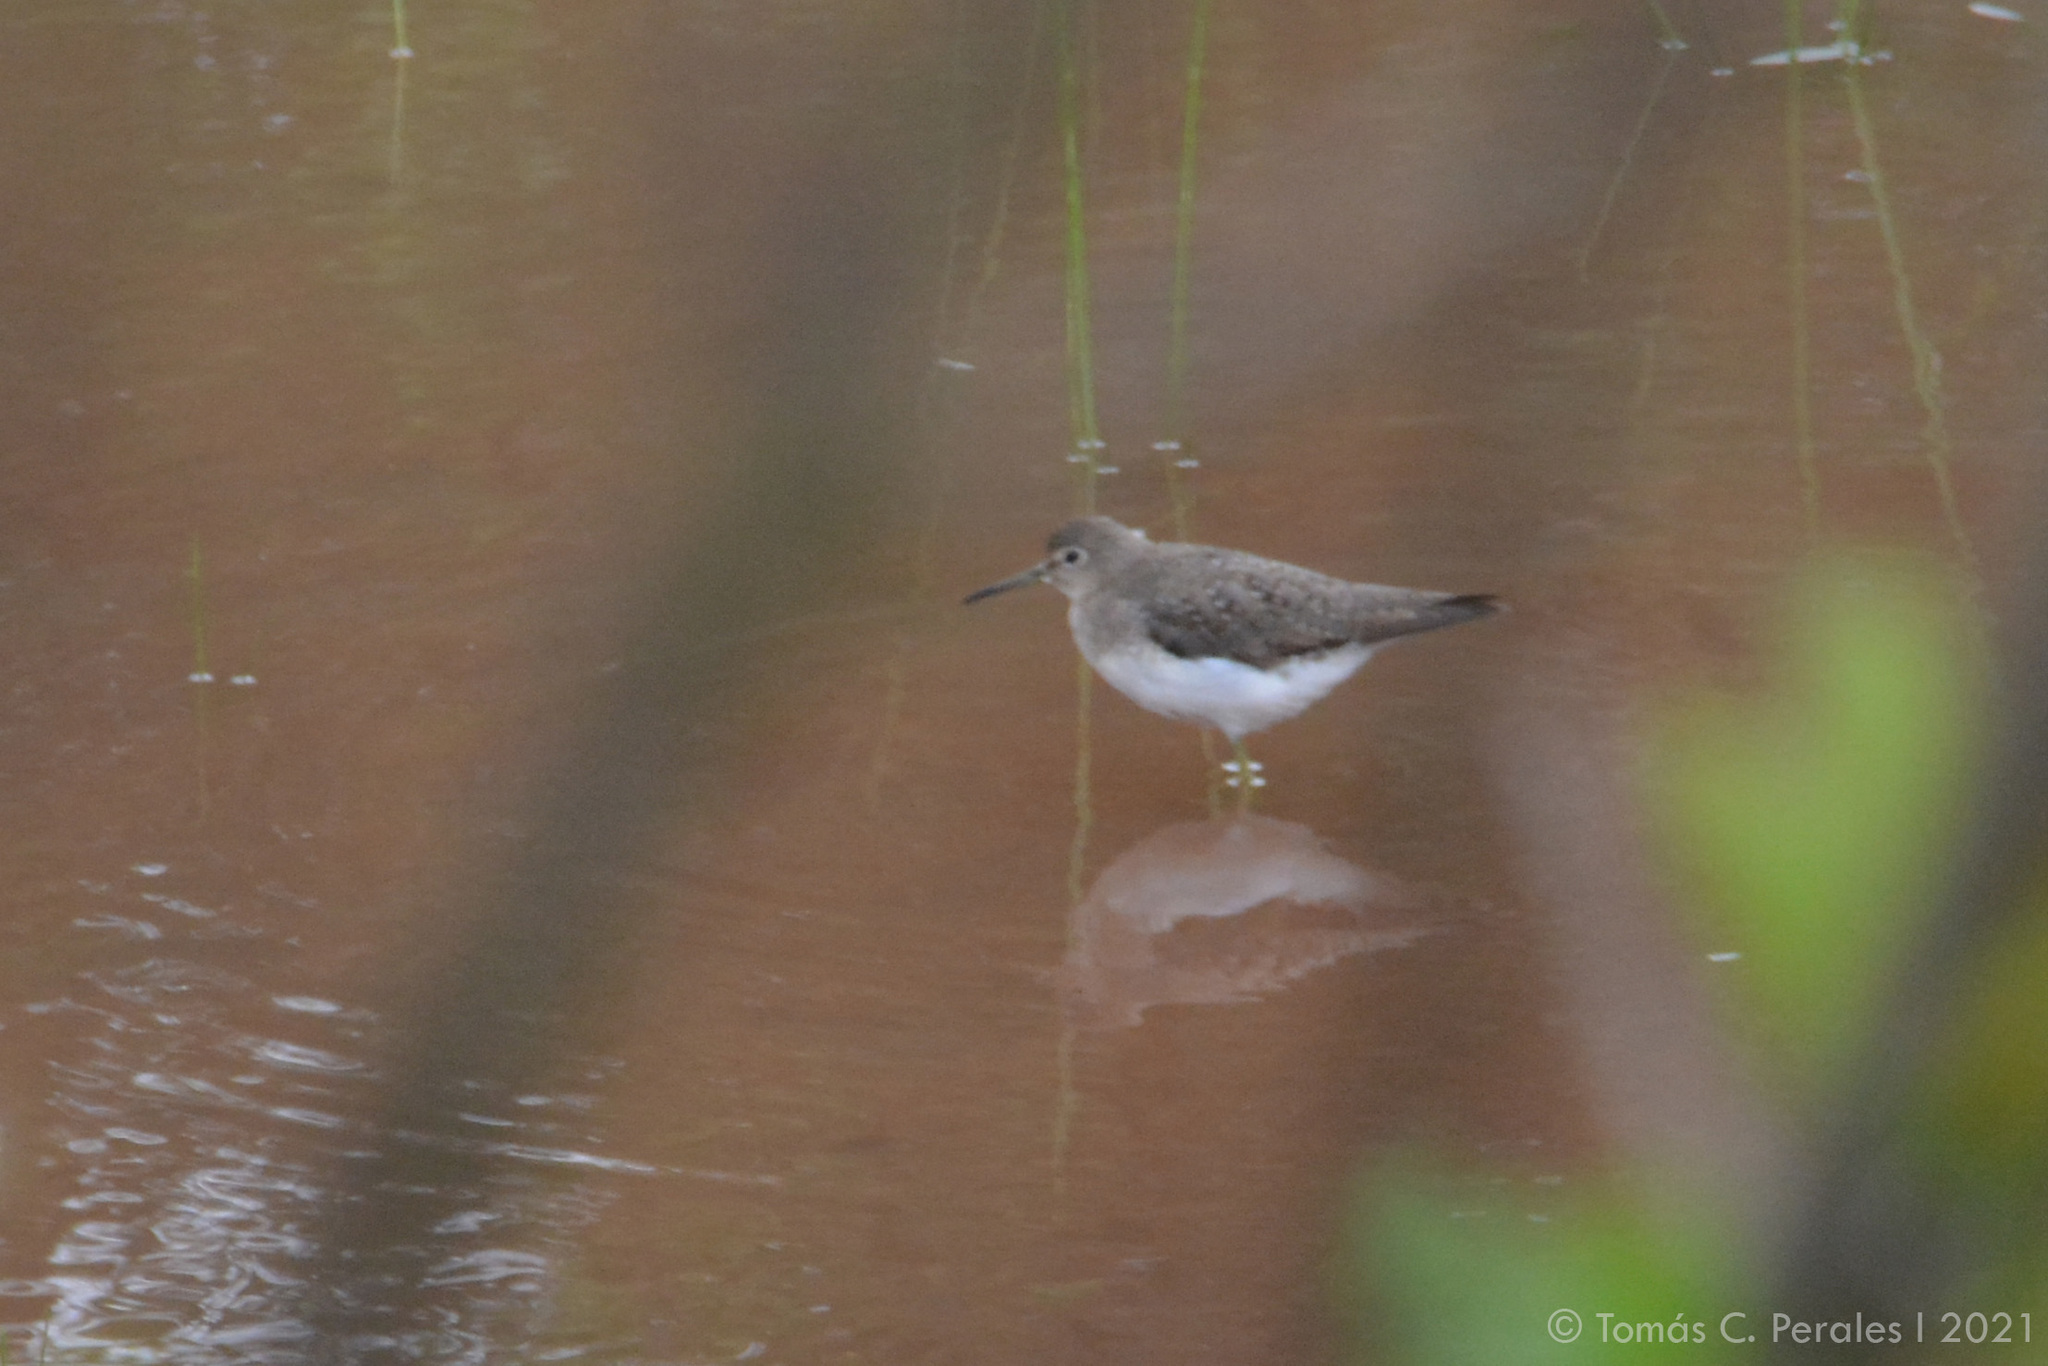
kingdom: Animalia
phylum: Chordata
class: Aves
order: Charadriiformes
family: Scolopacidae
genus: Tringa
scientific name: Tringa solitaria
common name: Solitary sandpiper
